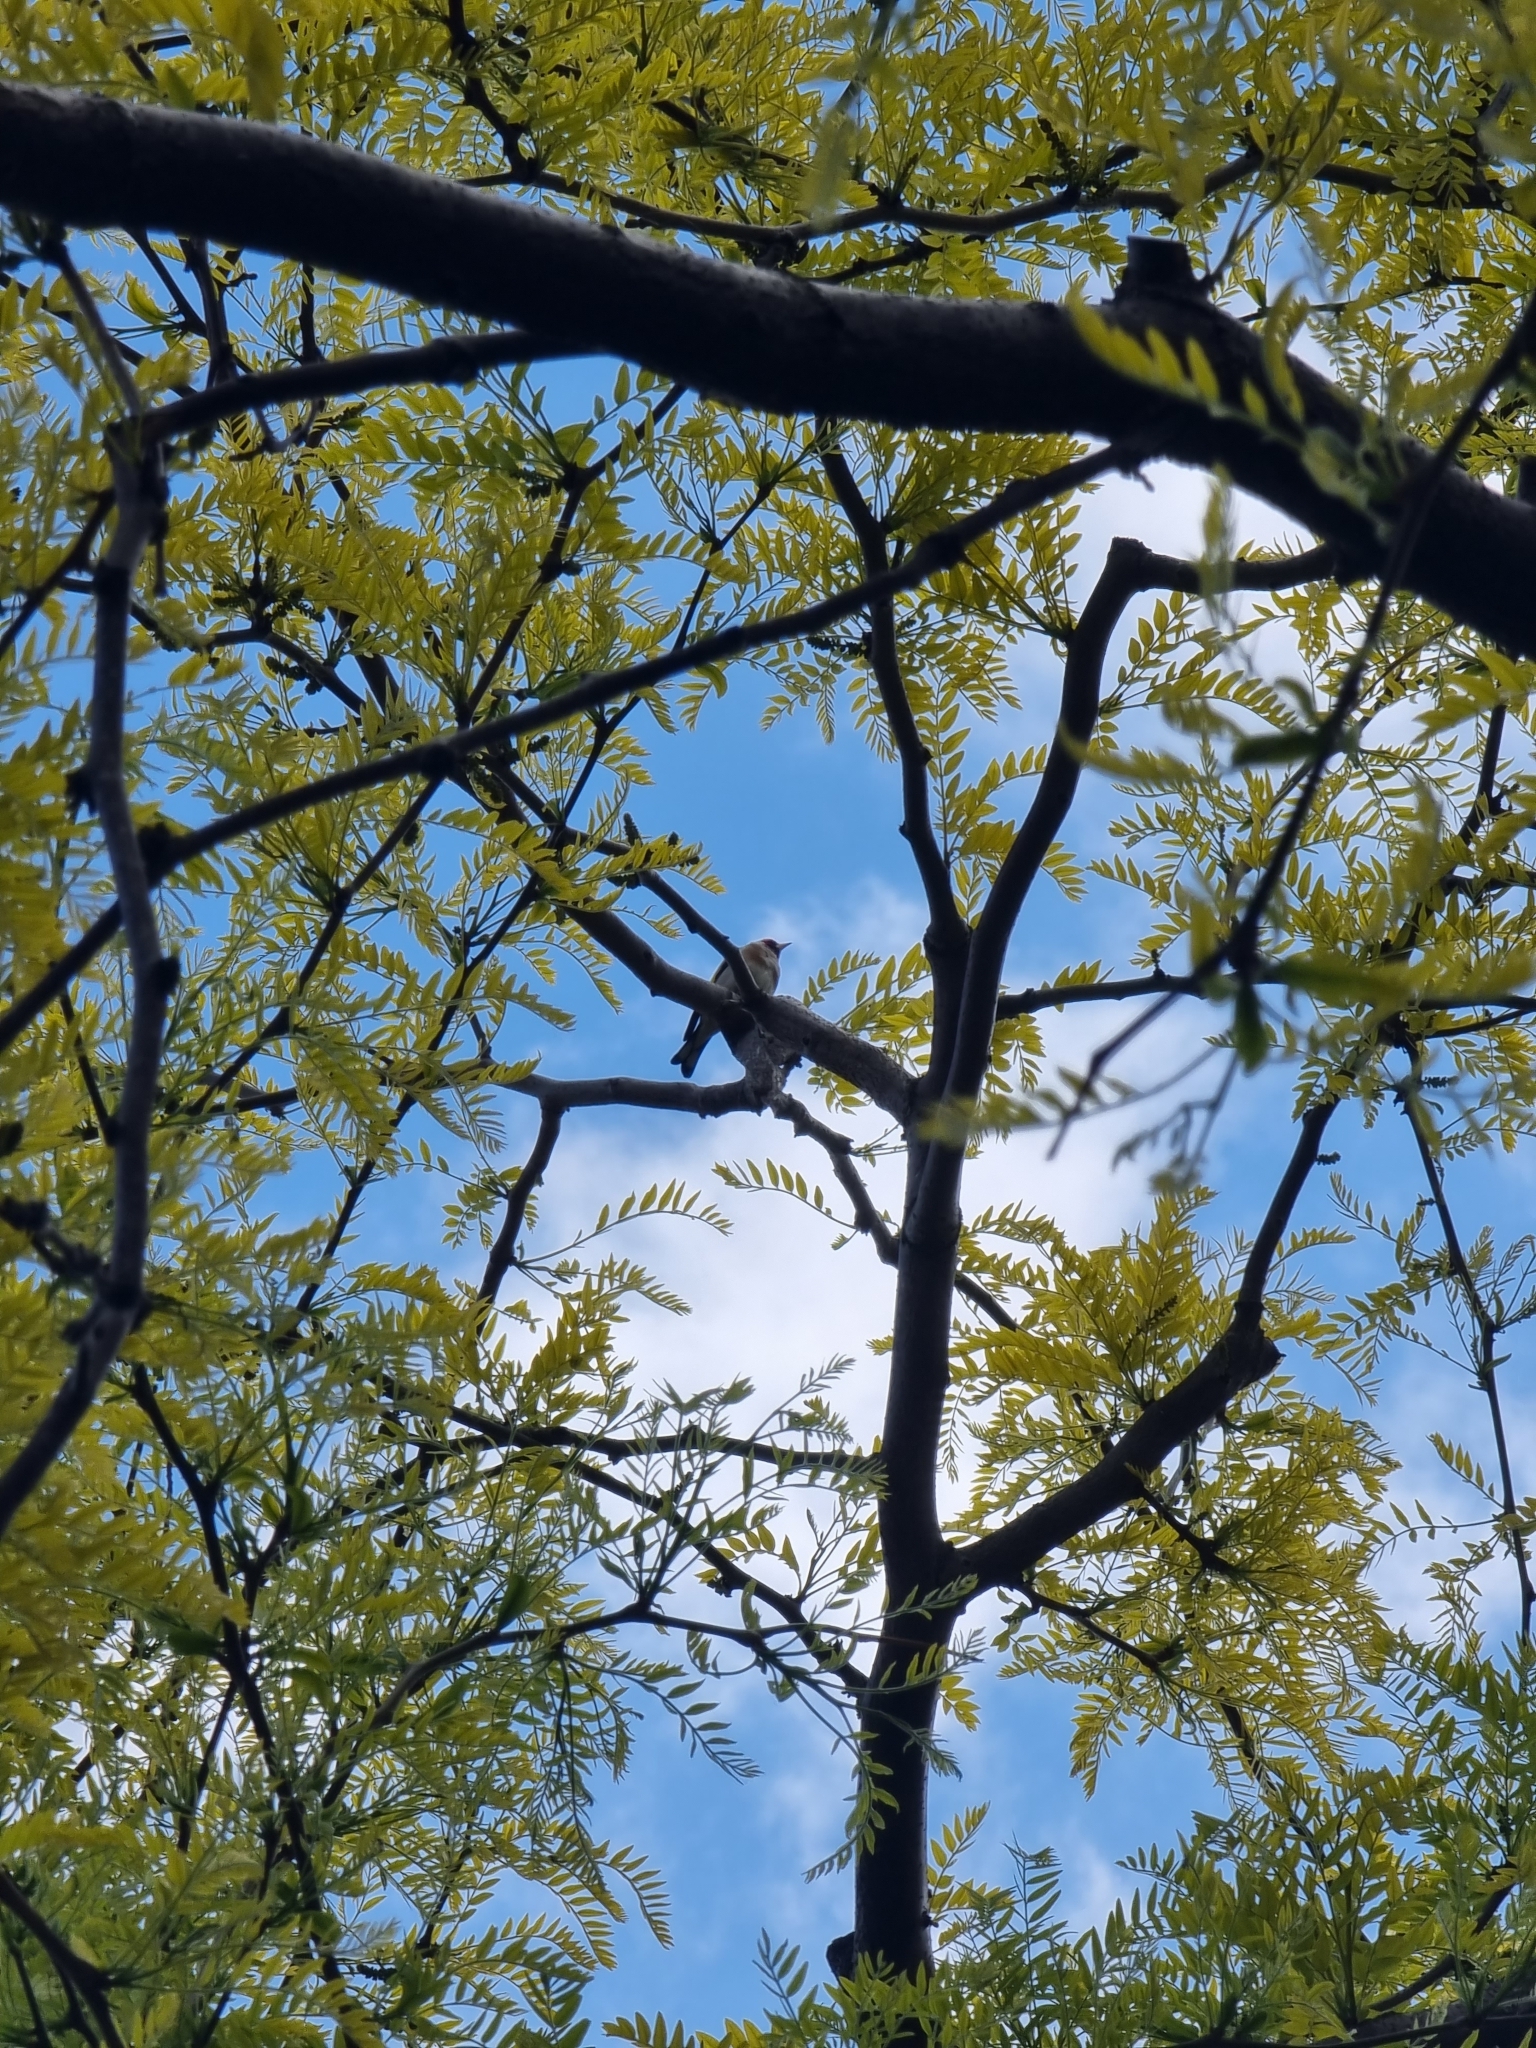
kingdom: Animalia
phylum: Chordata
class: Aves
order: Passeriformes
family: Fringillidae
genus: Carduelis
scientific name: Carduelis carduelis
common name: European goldfinch
